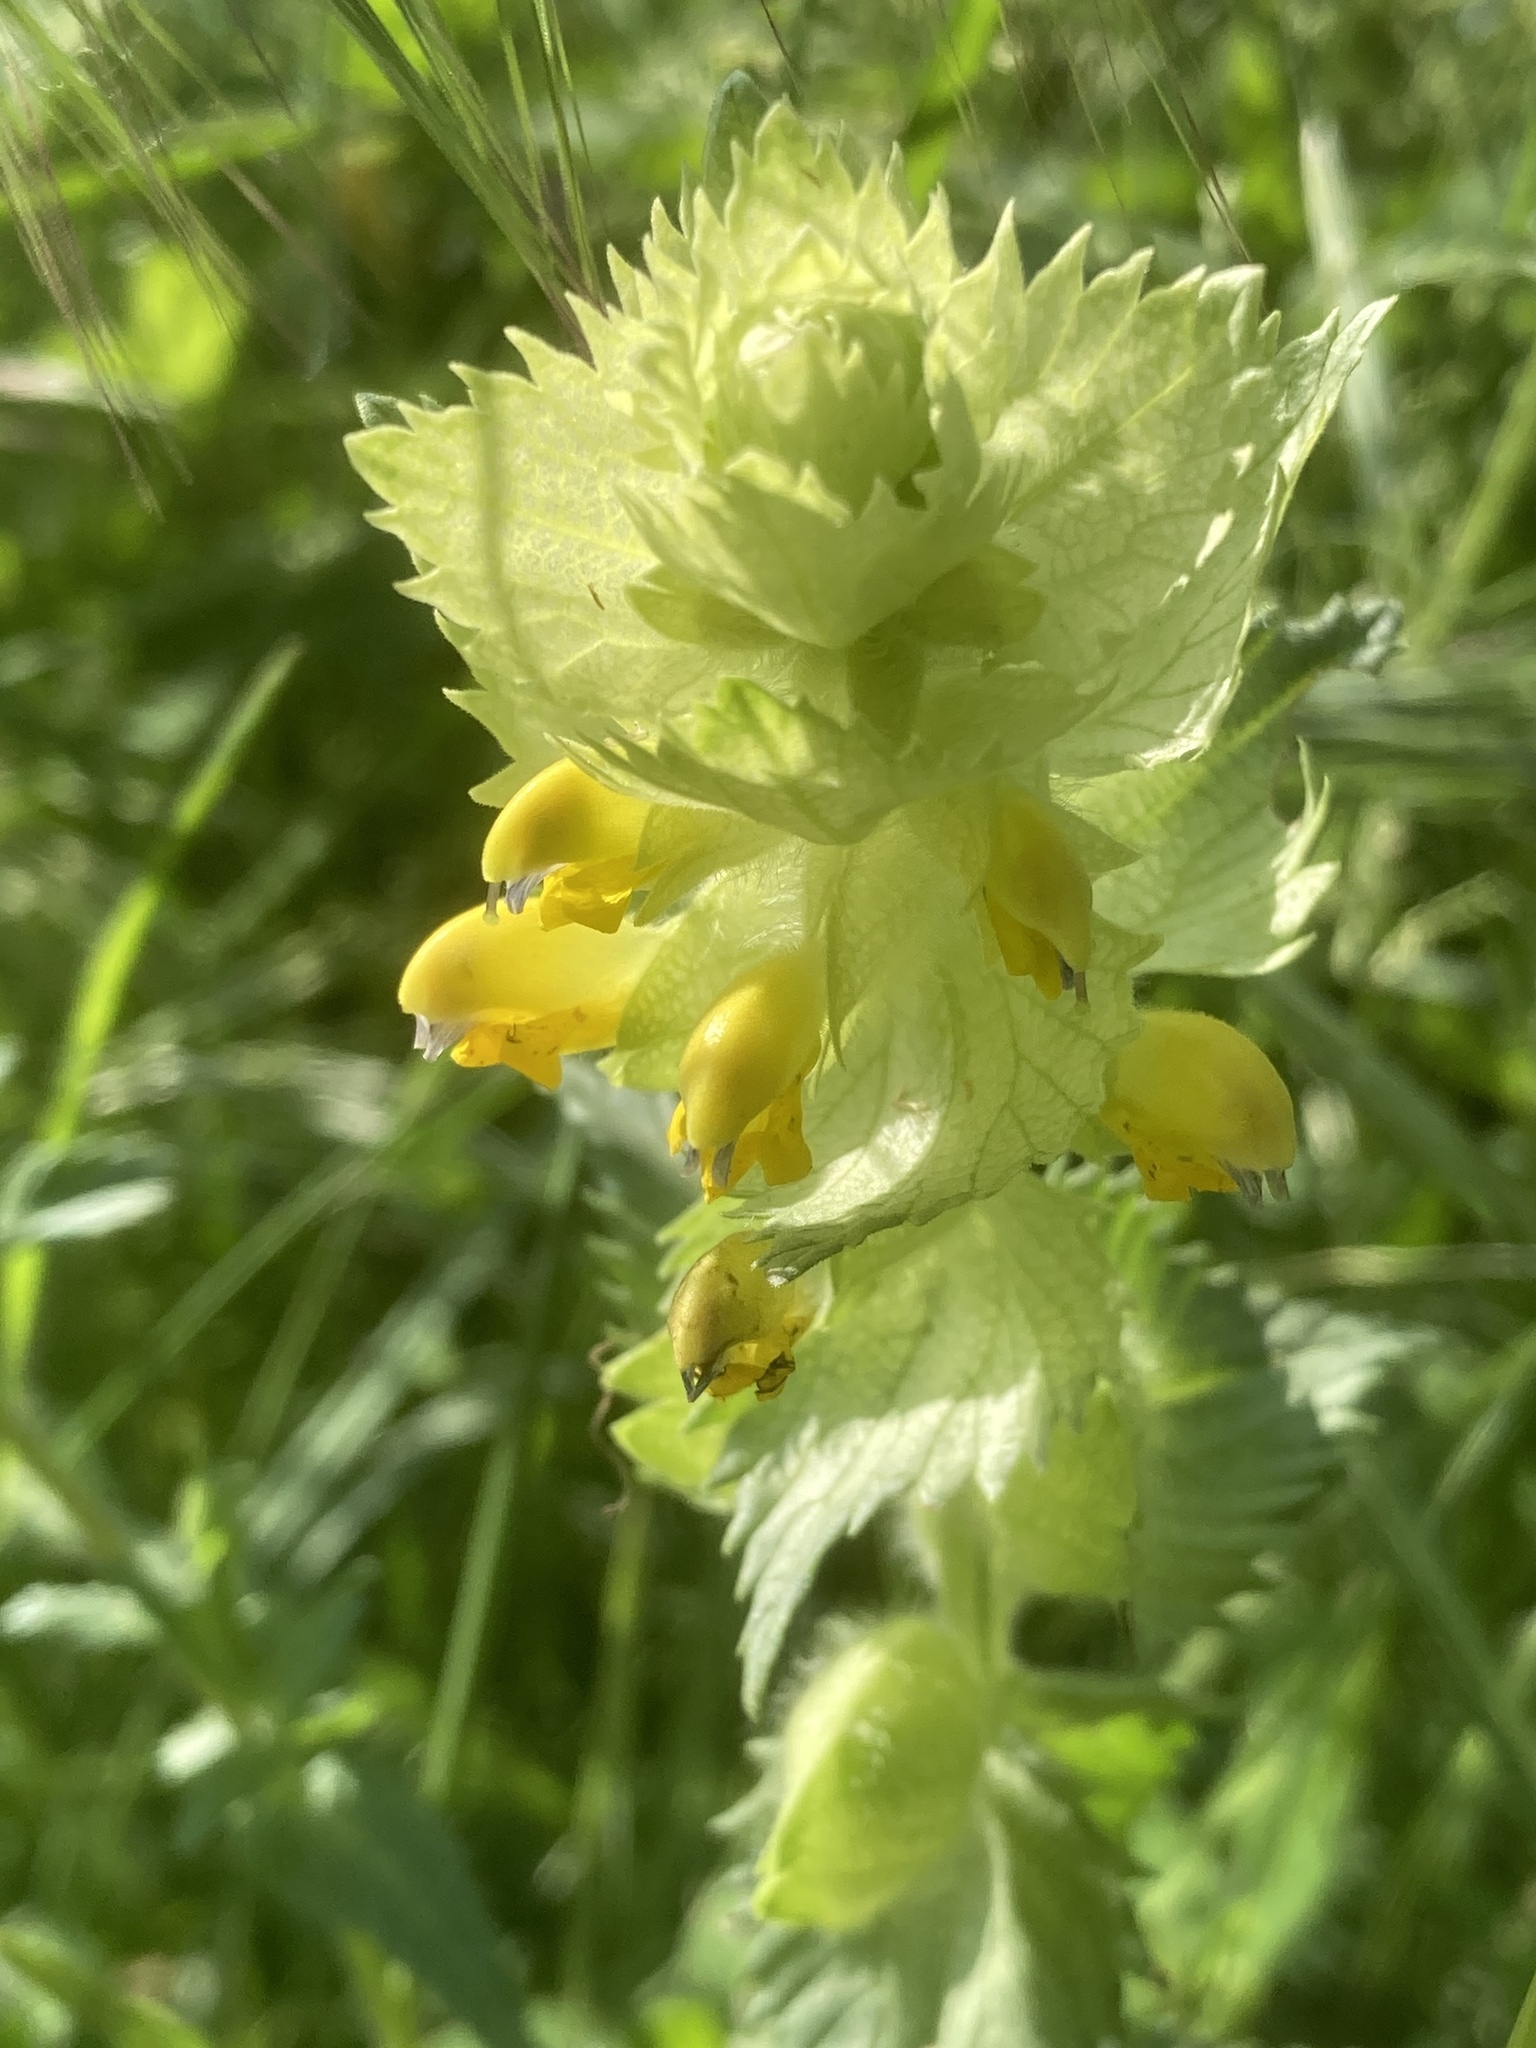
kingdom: Plantae
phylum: Tracheophyta
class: Magnoliopsida
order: Lamiales
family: Orobanchaceae
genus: Rhinanthus
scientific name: Rhinanthus alectorolophus
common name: Greater yellow-rattle
